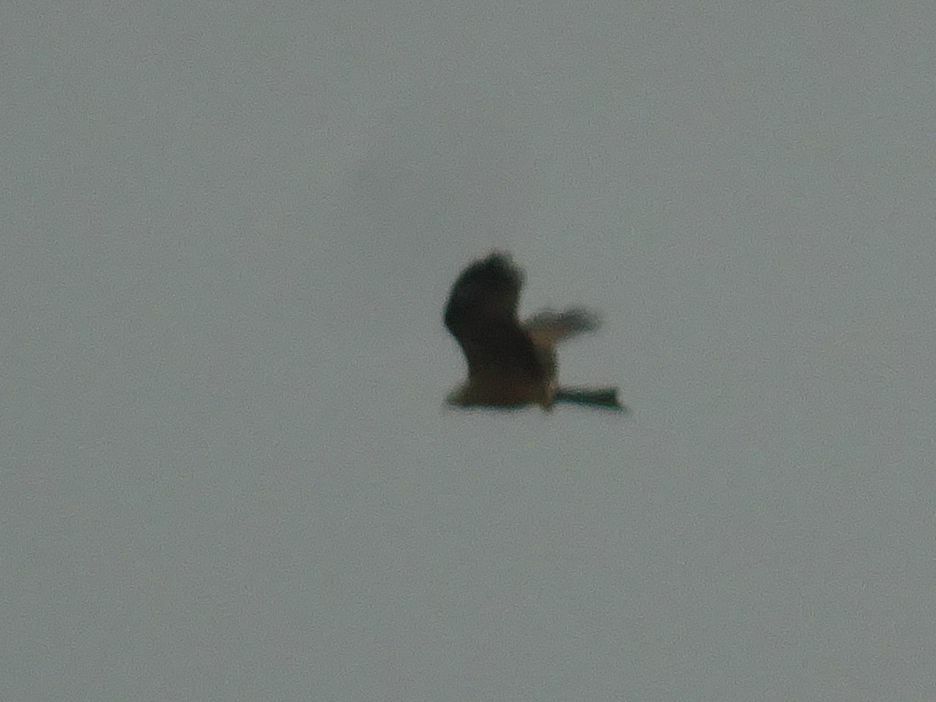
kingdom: Animalia
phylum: Chordata
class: Aves
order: Accipitriformes
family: Accipitridae
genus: Milvus
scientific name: Milvus migrans
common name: Black kite
